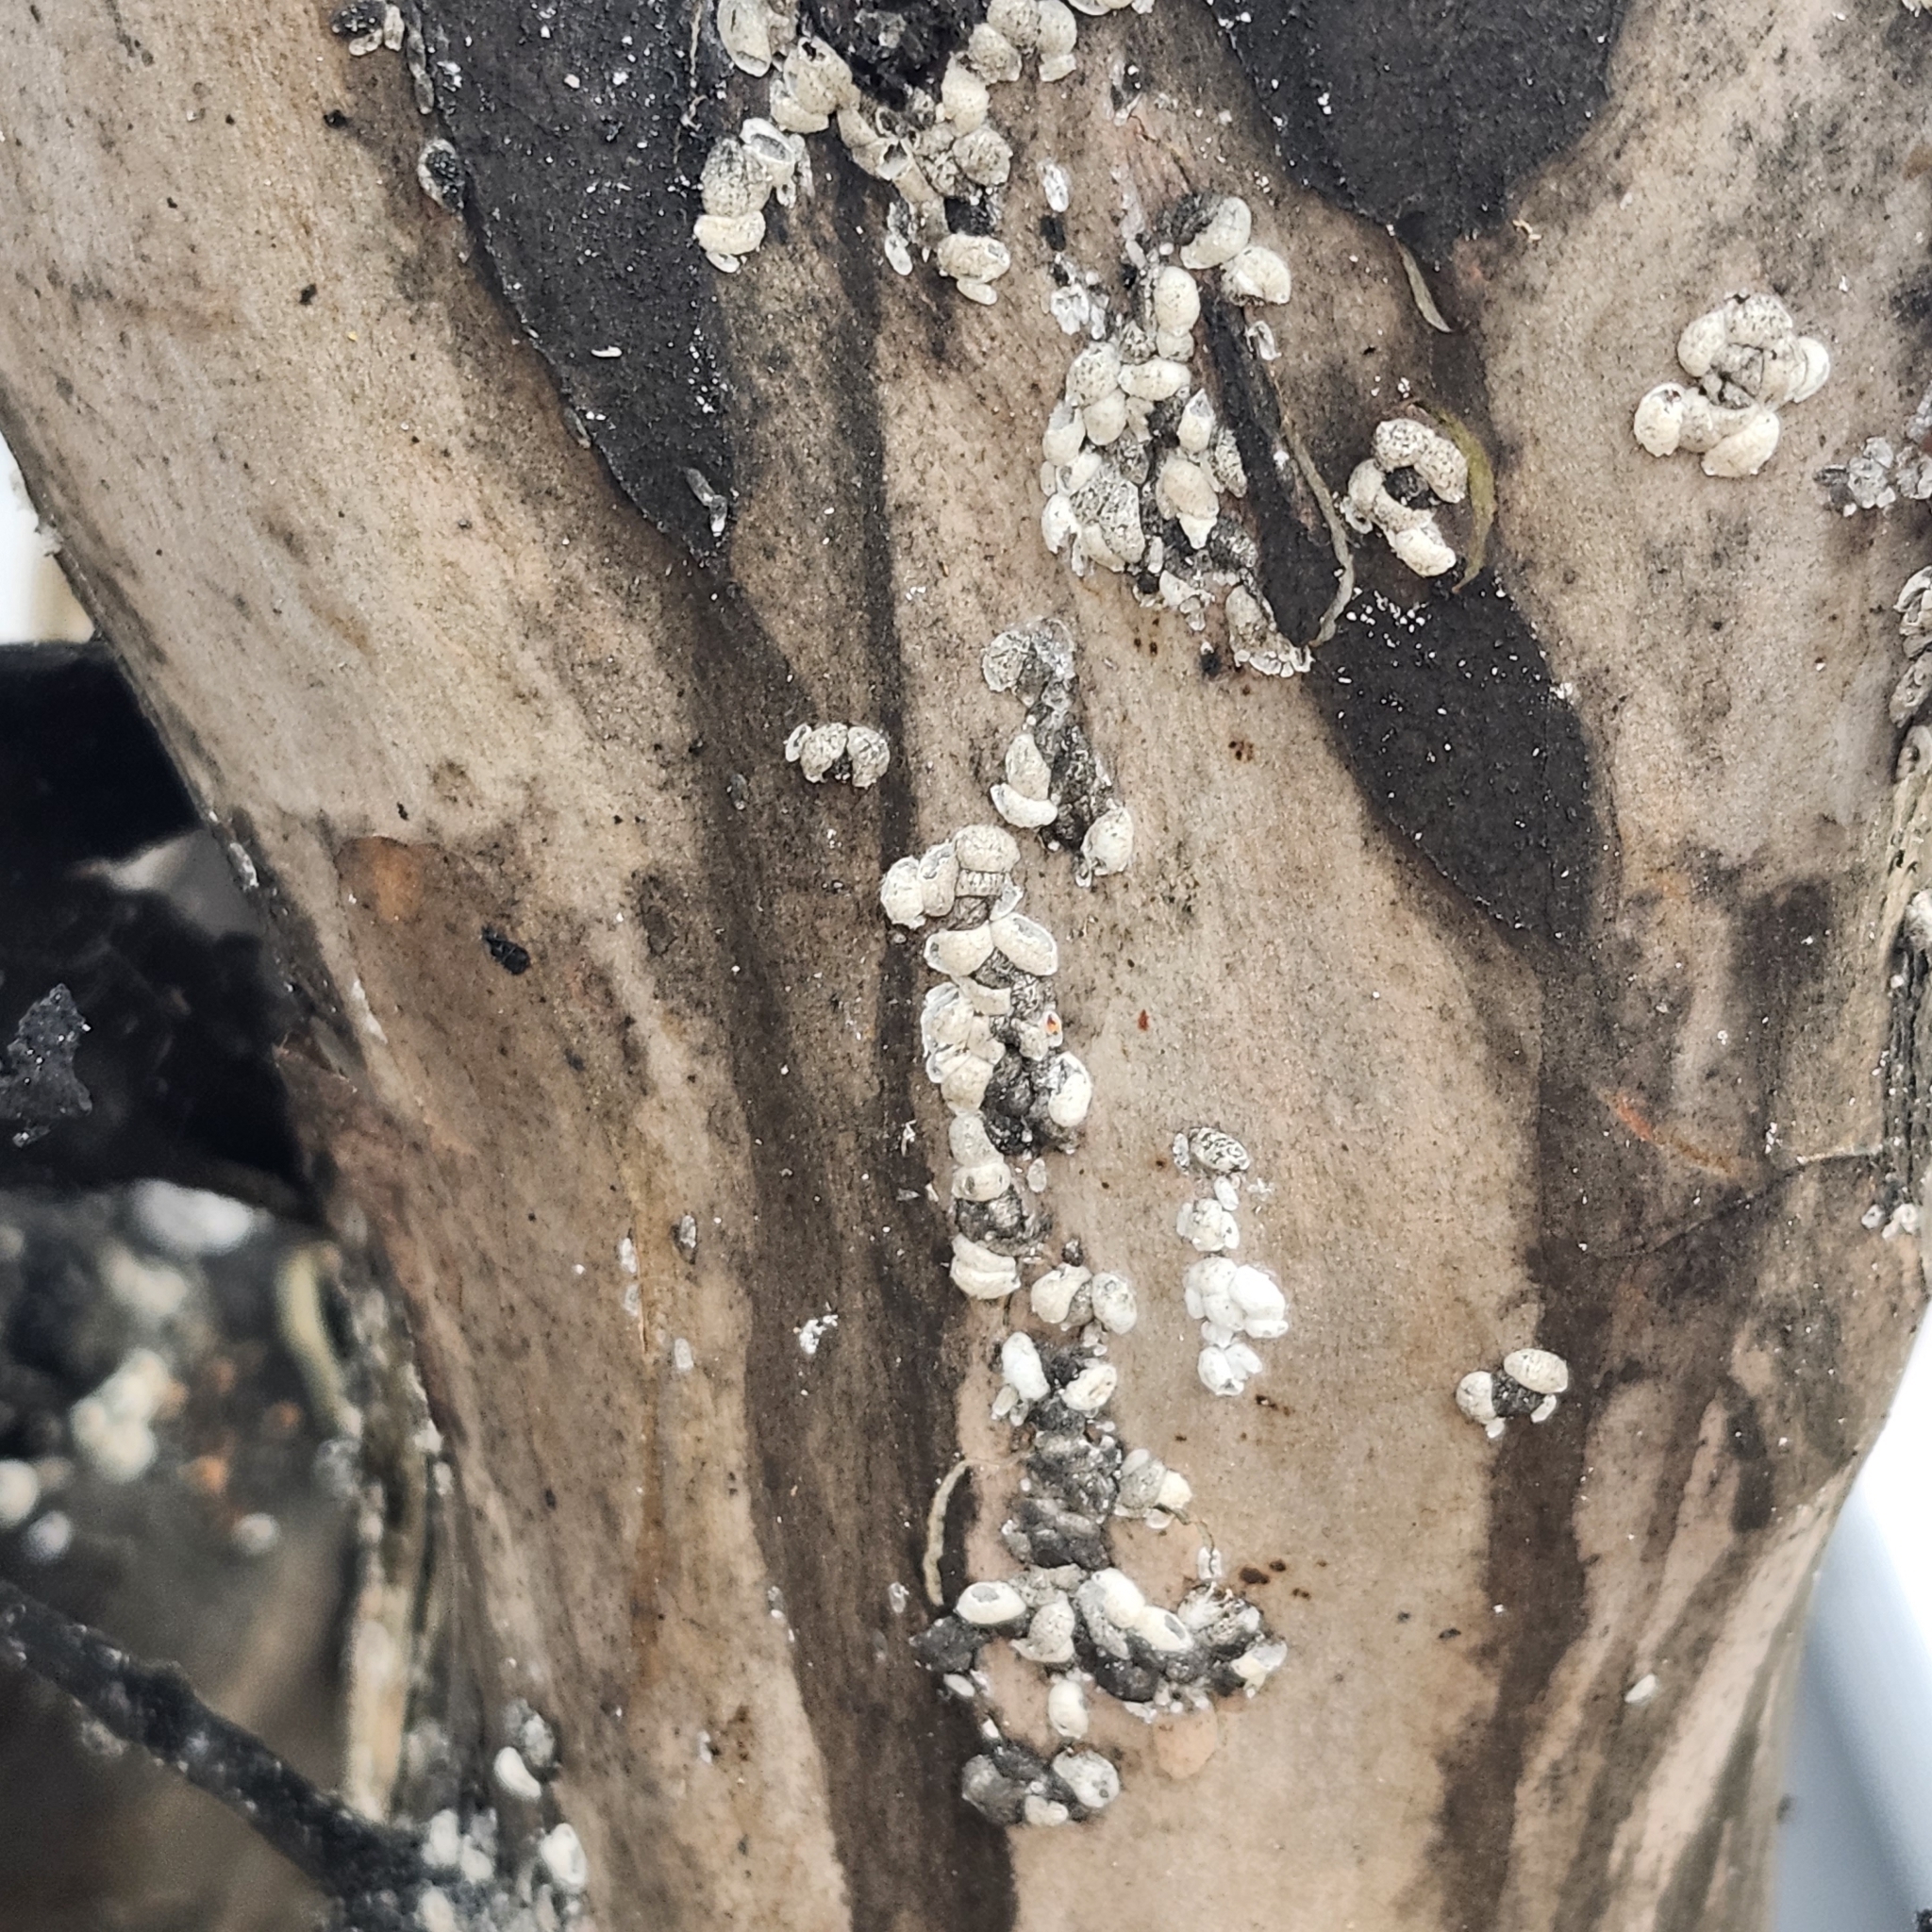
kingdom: Animalia
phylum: Arthropoda
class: Insecta
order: Hemiptera
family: Eriococcidae
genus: Eriococcus
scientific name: Eriococcus lagerstroemiae
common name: Crapemyrtle bark scale
